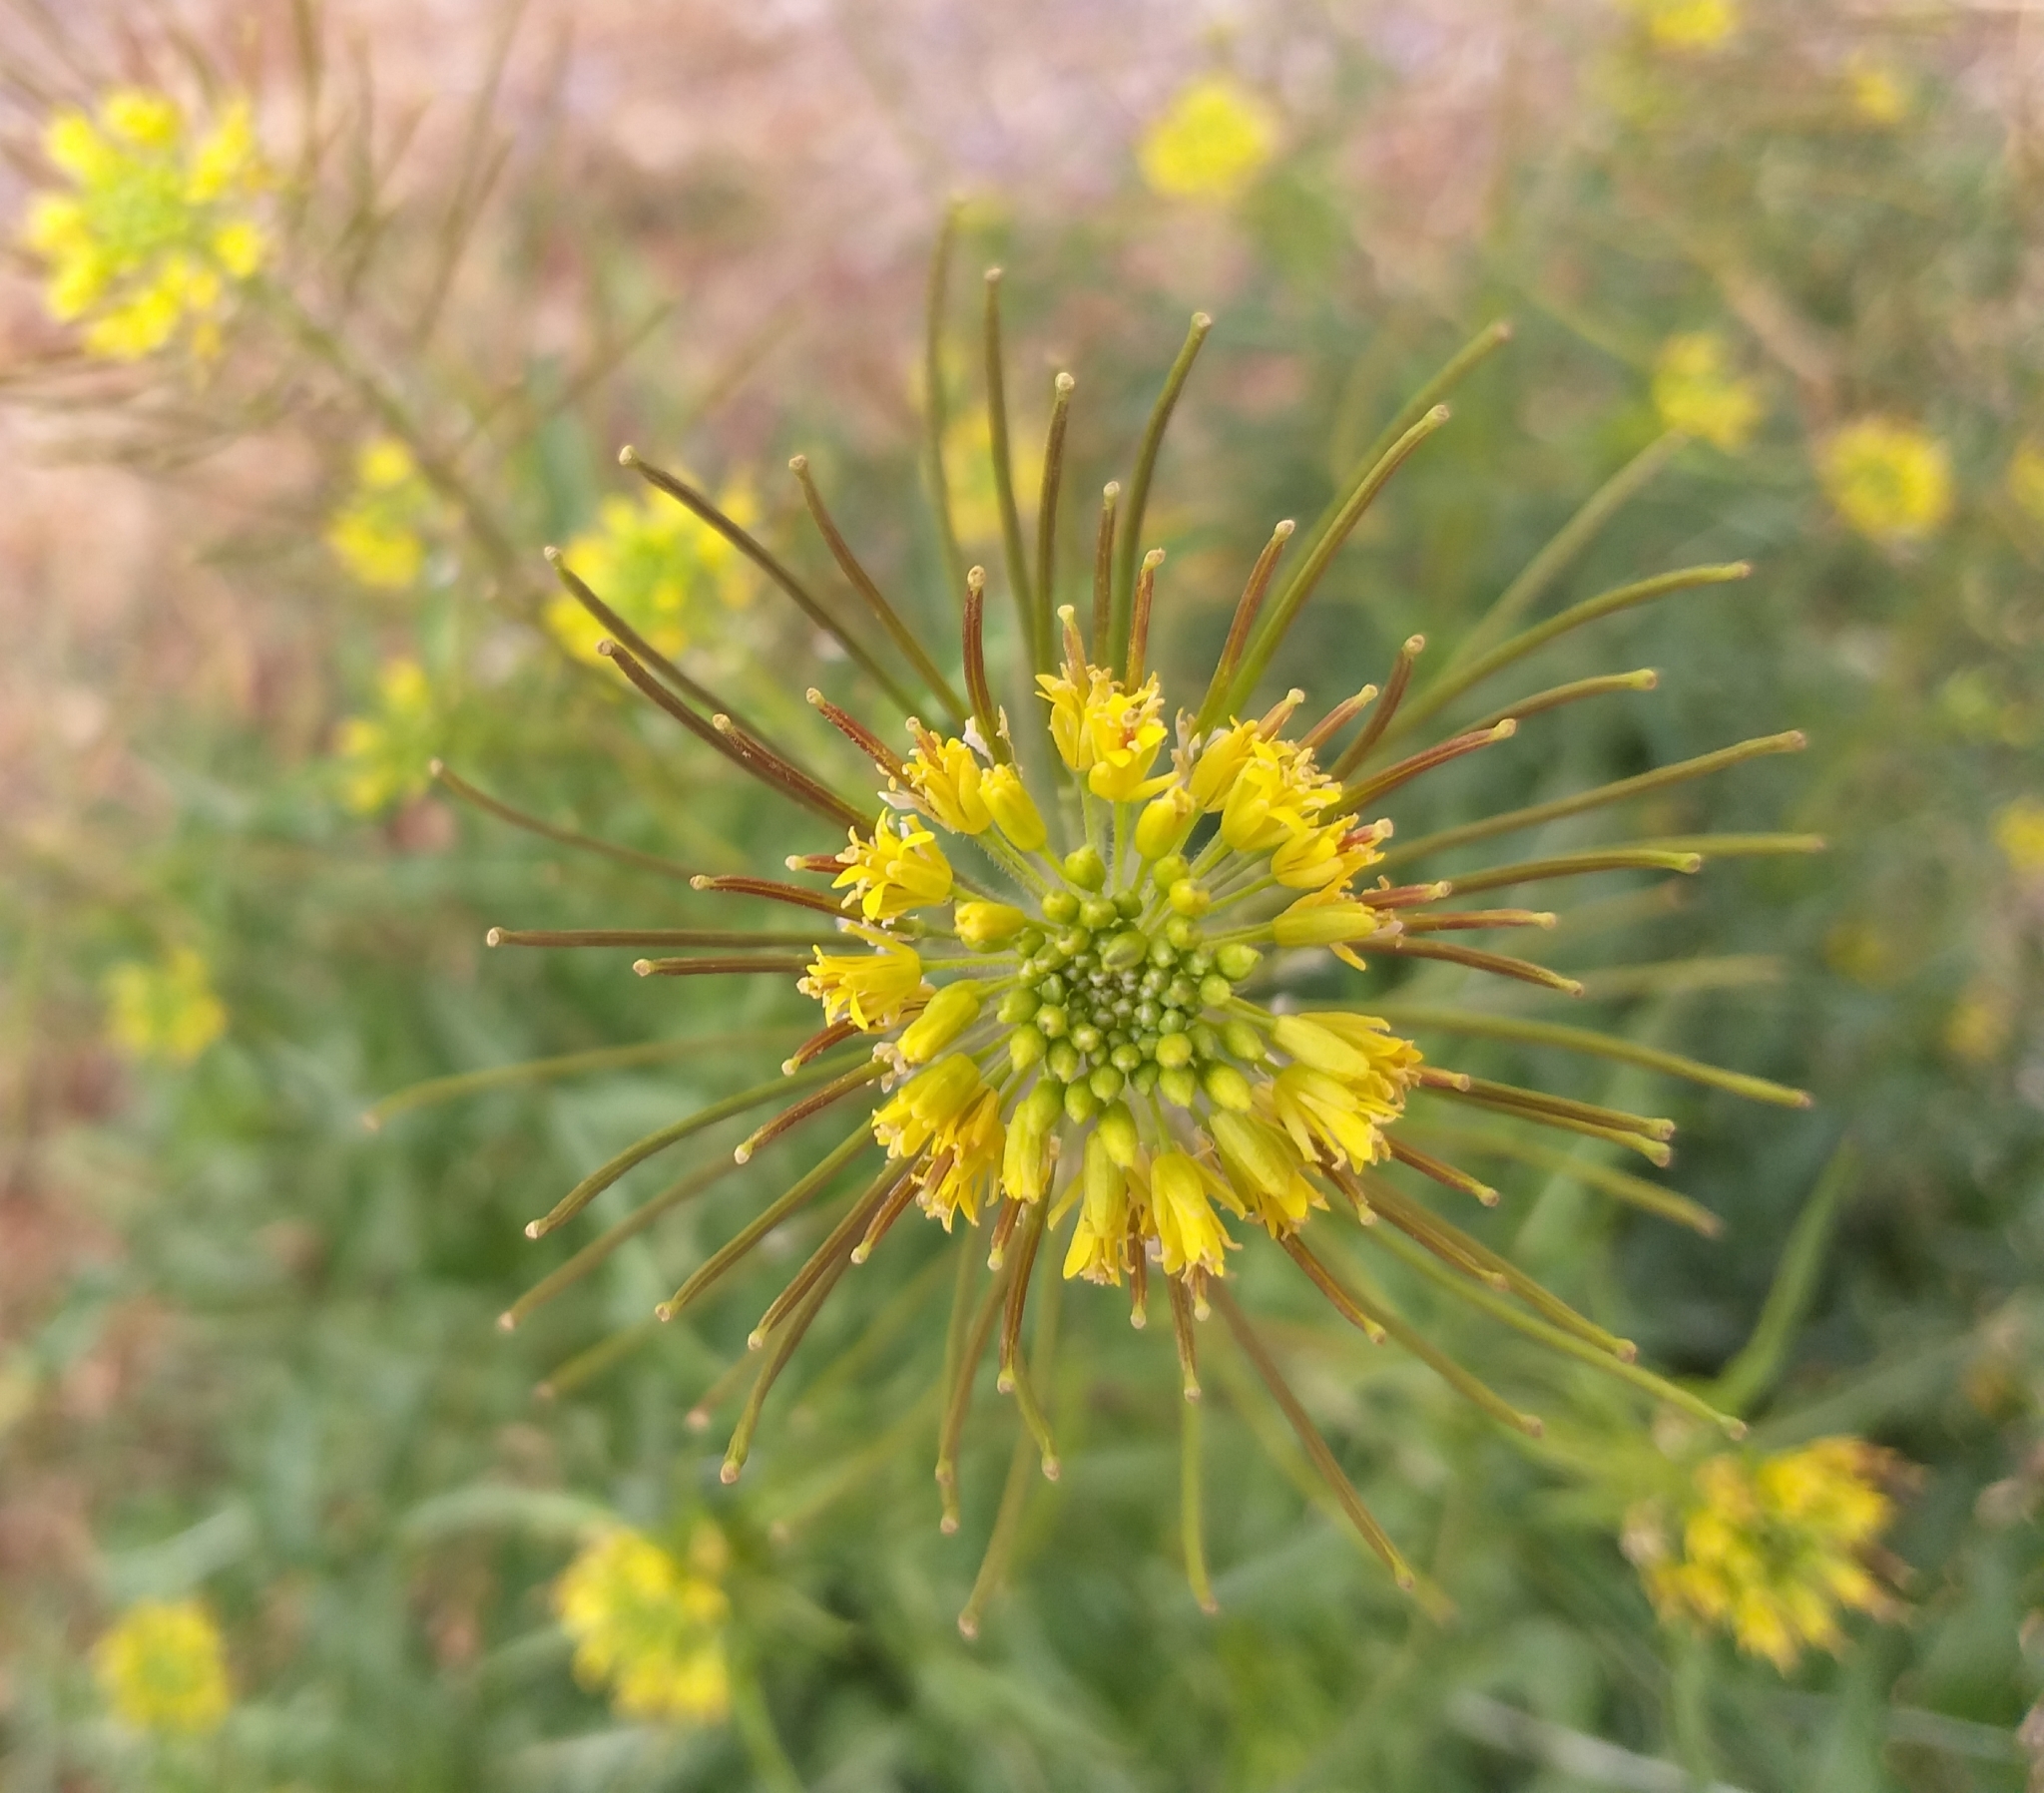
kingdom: Plantae
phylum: Tracheophyta
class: Magnoliopsida
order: Brassicales
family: Brassicaceae
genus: Sisymbrium
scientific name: Sisymbrium irio
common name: London rocket
